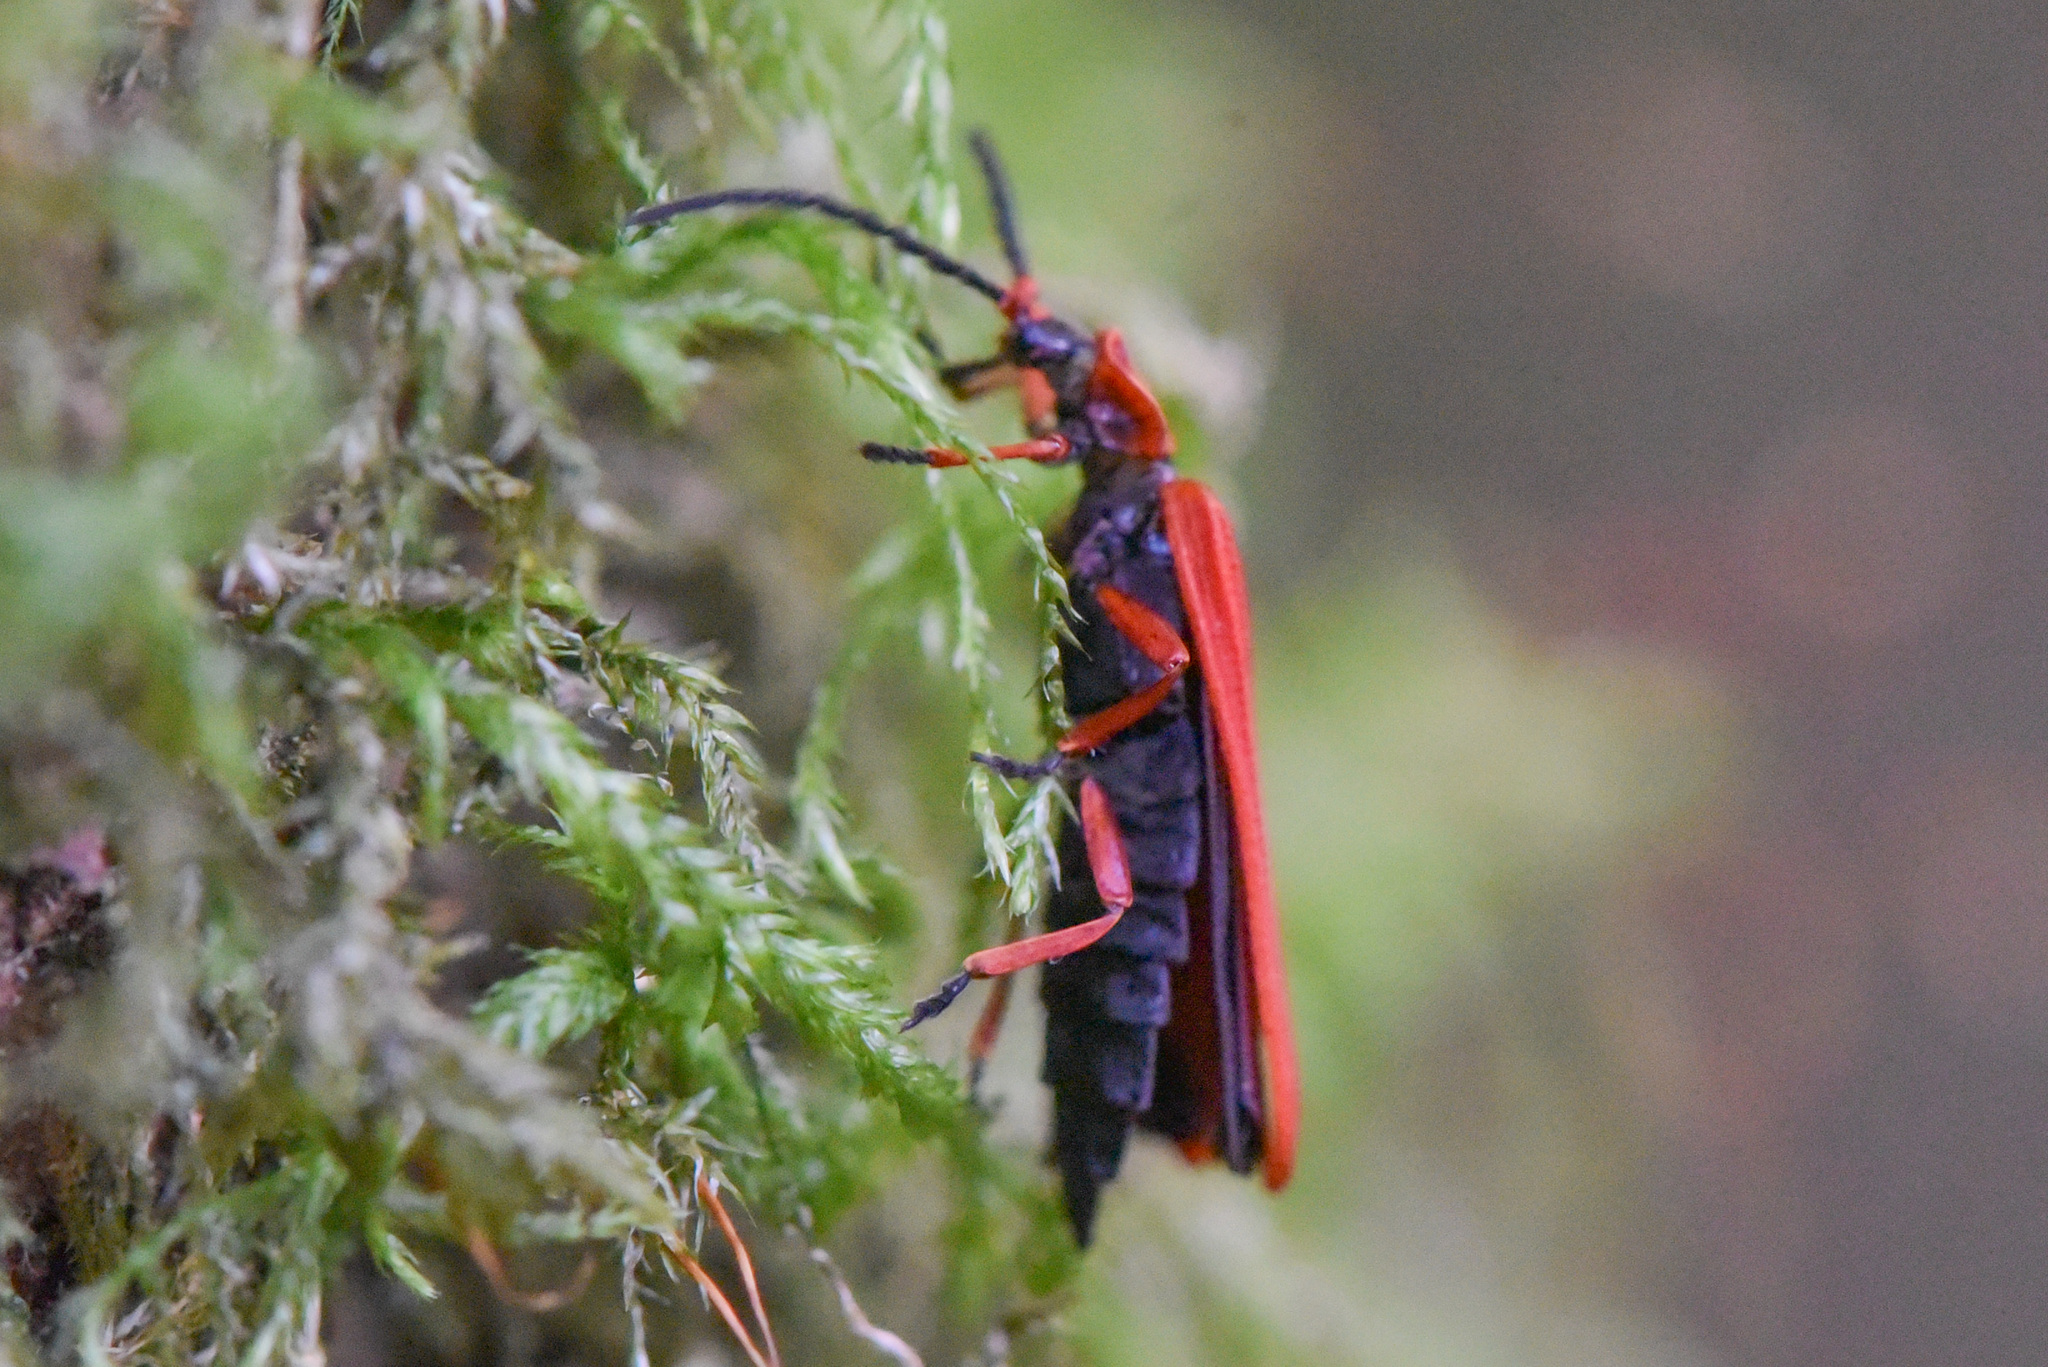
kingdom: Animalia
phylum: Arthropoda
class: Insecta
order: Coleoptera
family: Lycidae
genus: Dictyoptera
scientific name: Dictyoptera simplicipes
